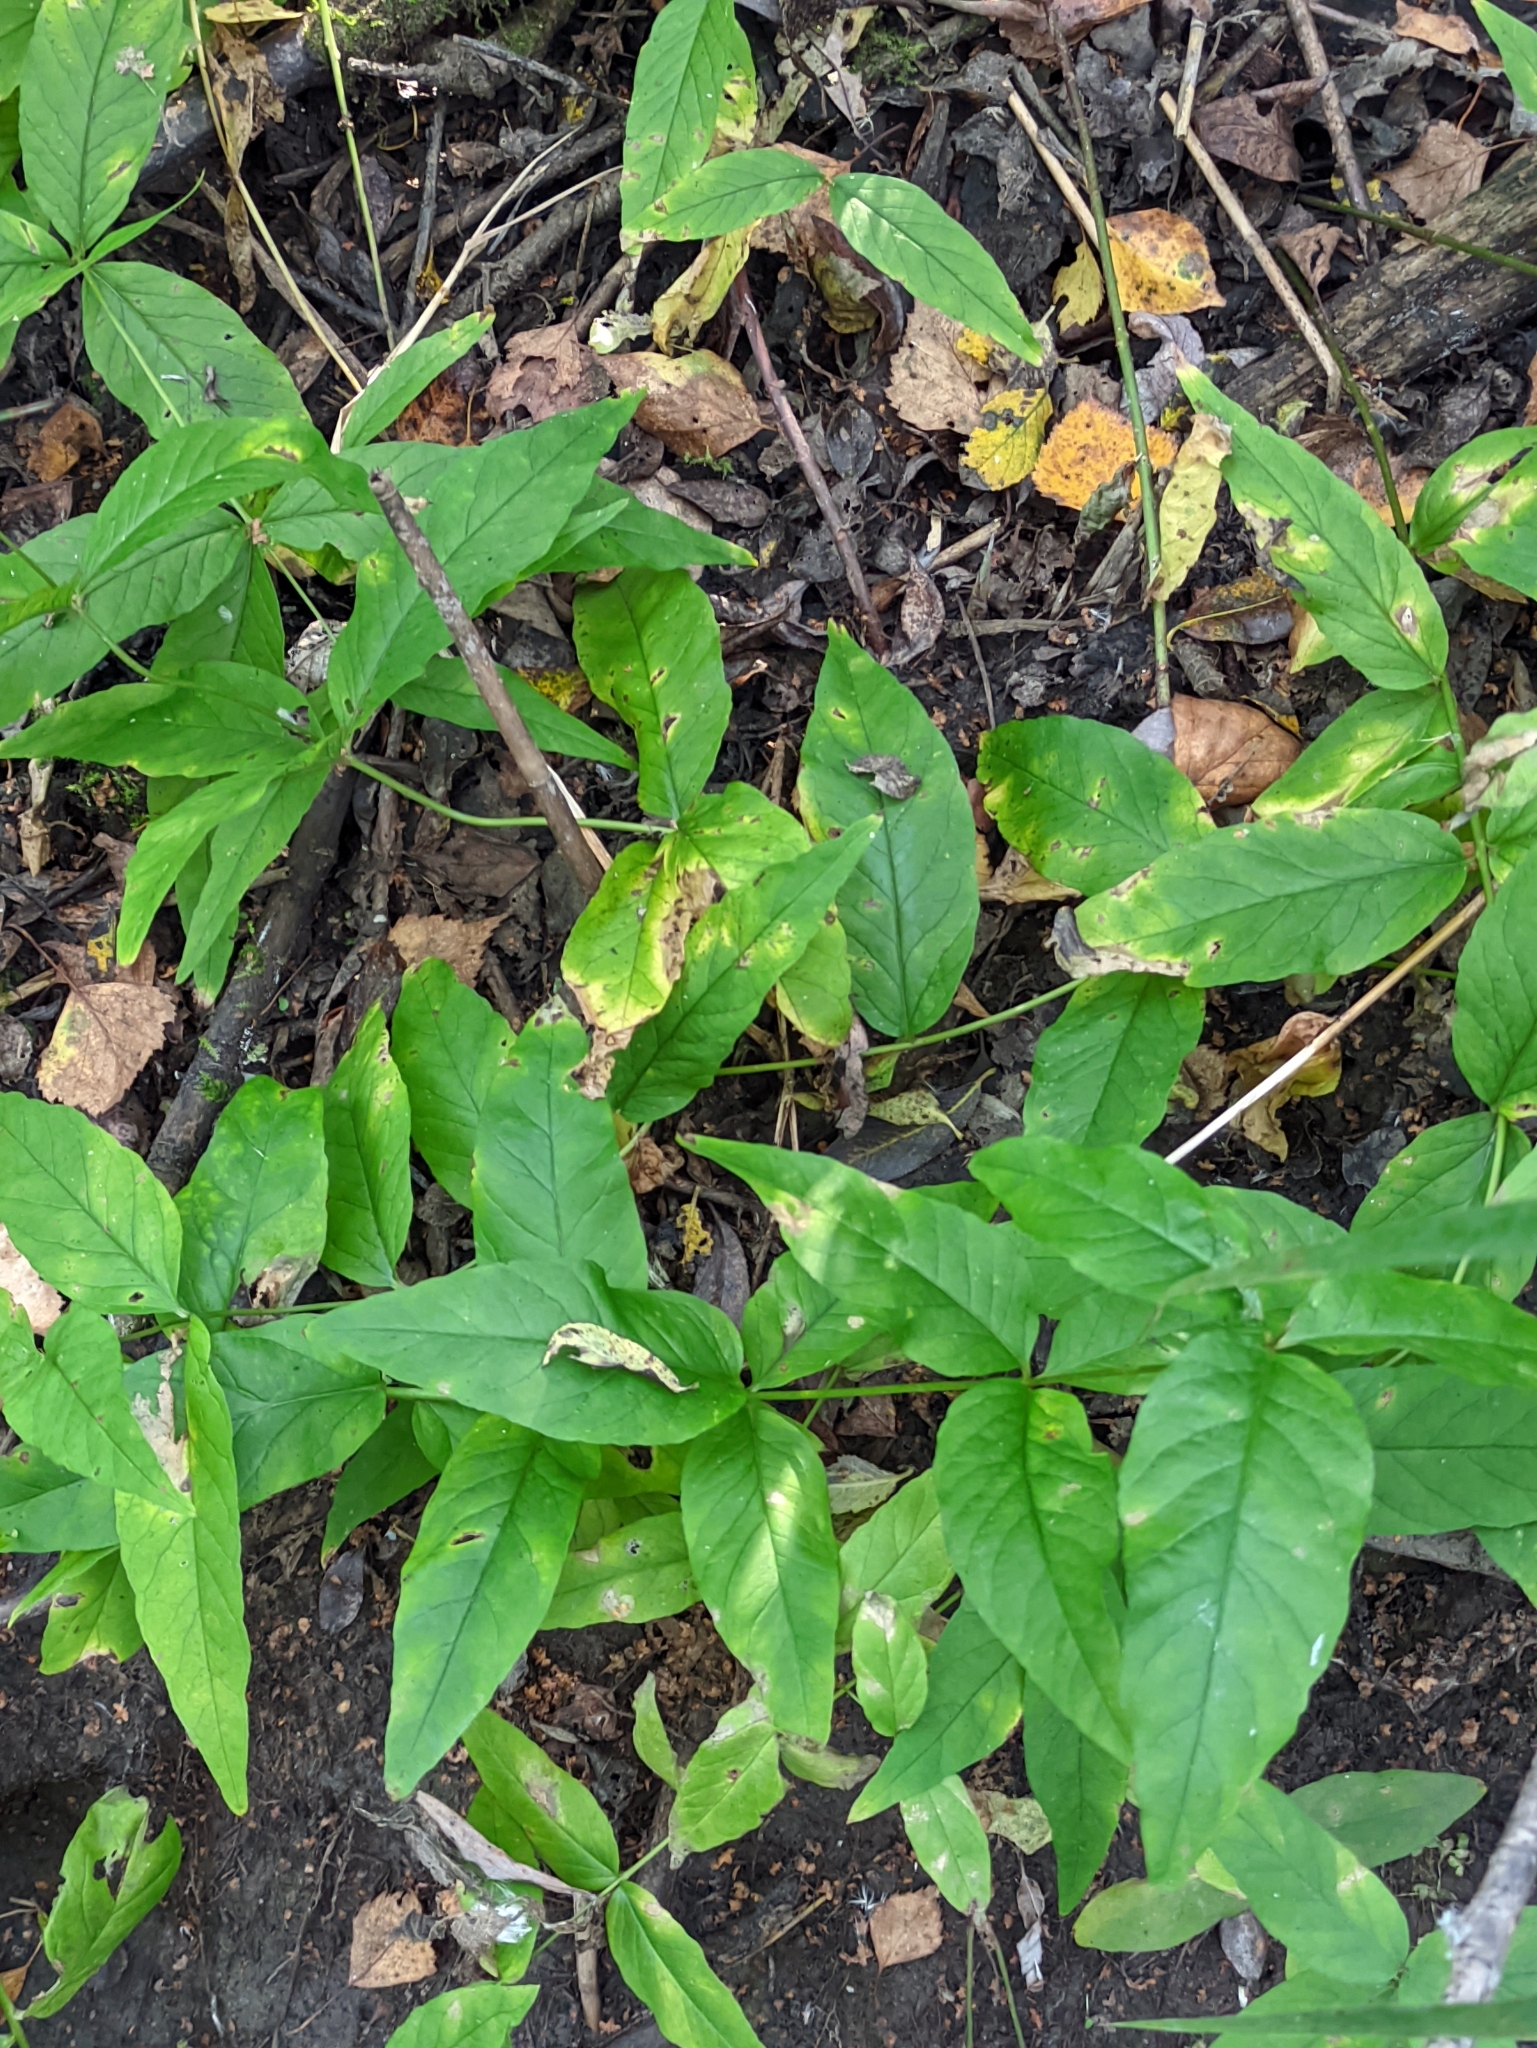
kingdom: Plantae
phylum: Tracheophyta
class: Magnoliopsida
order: Ericales
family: Primulaceae
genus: Lysimachia
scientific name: Lysimachia vulgaris
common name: Yellow loosestrife
